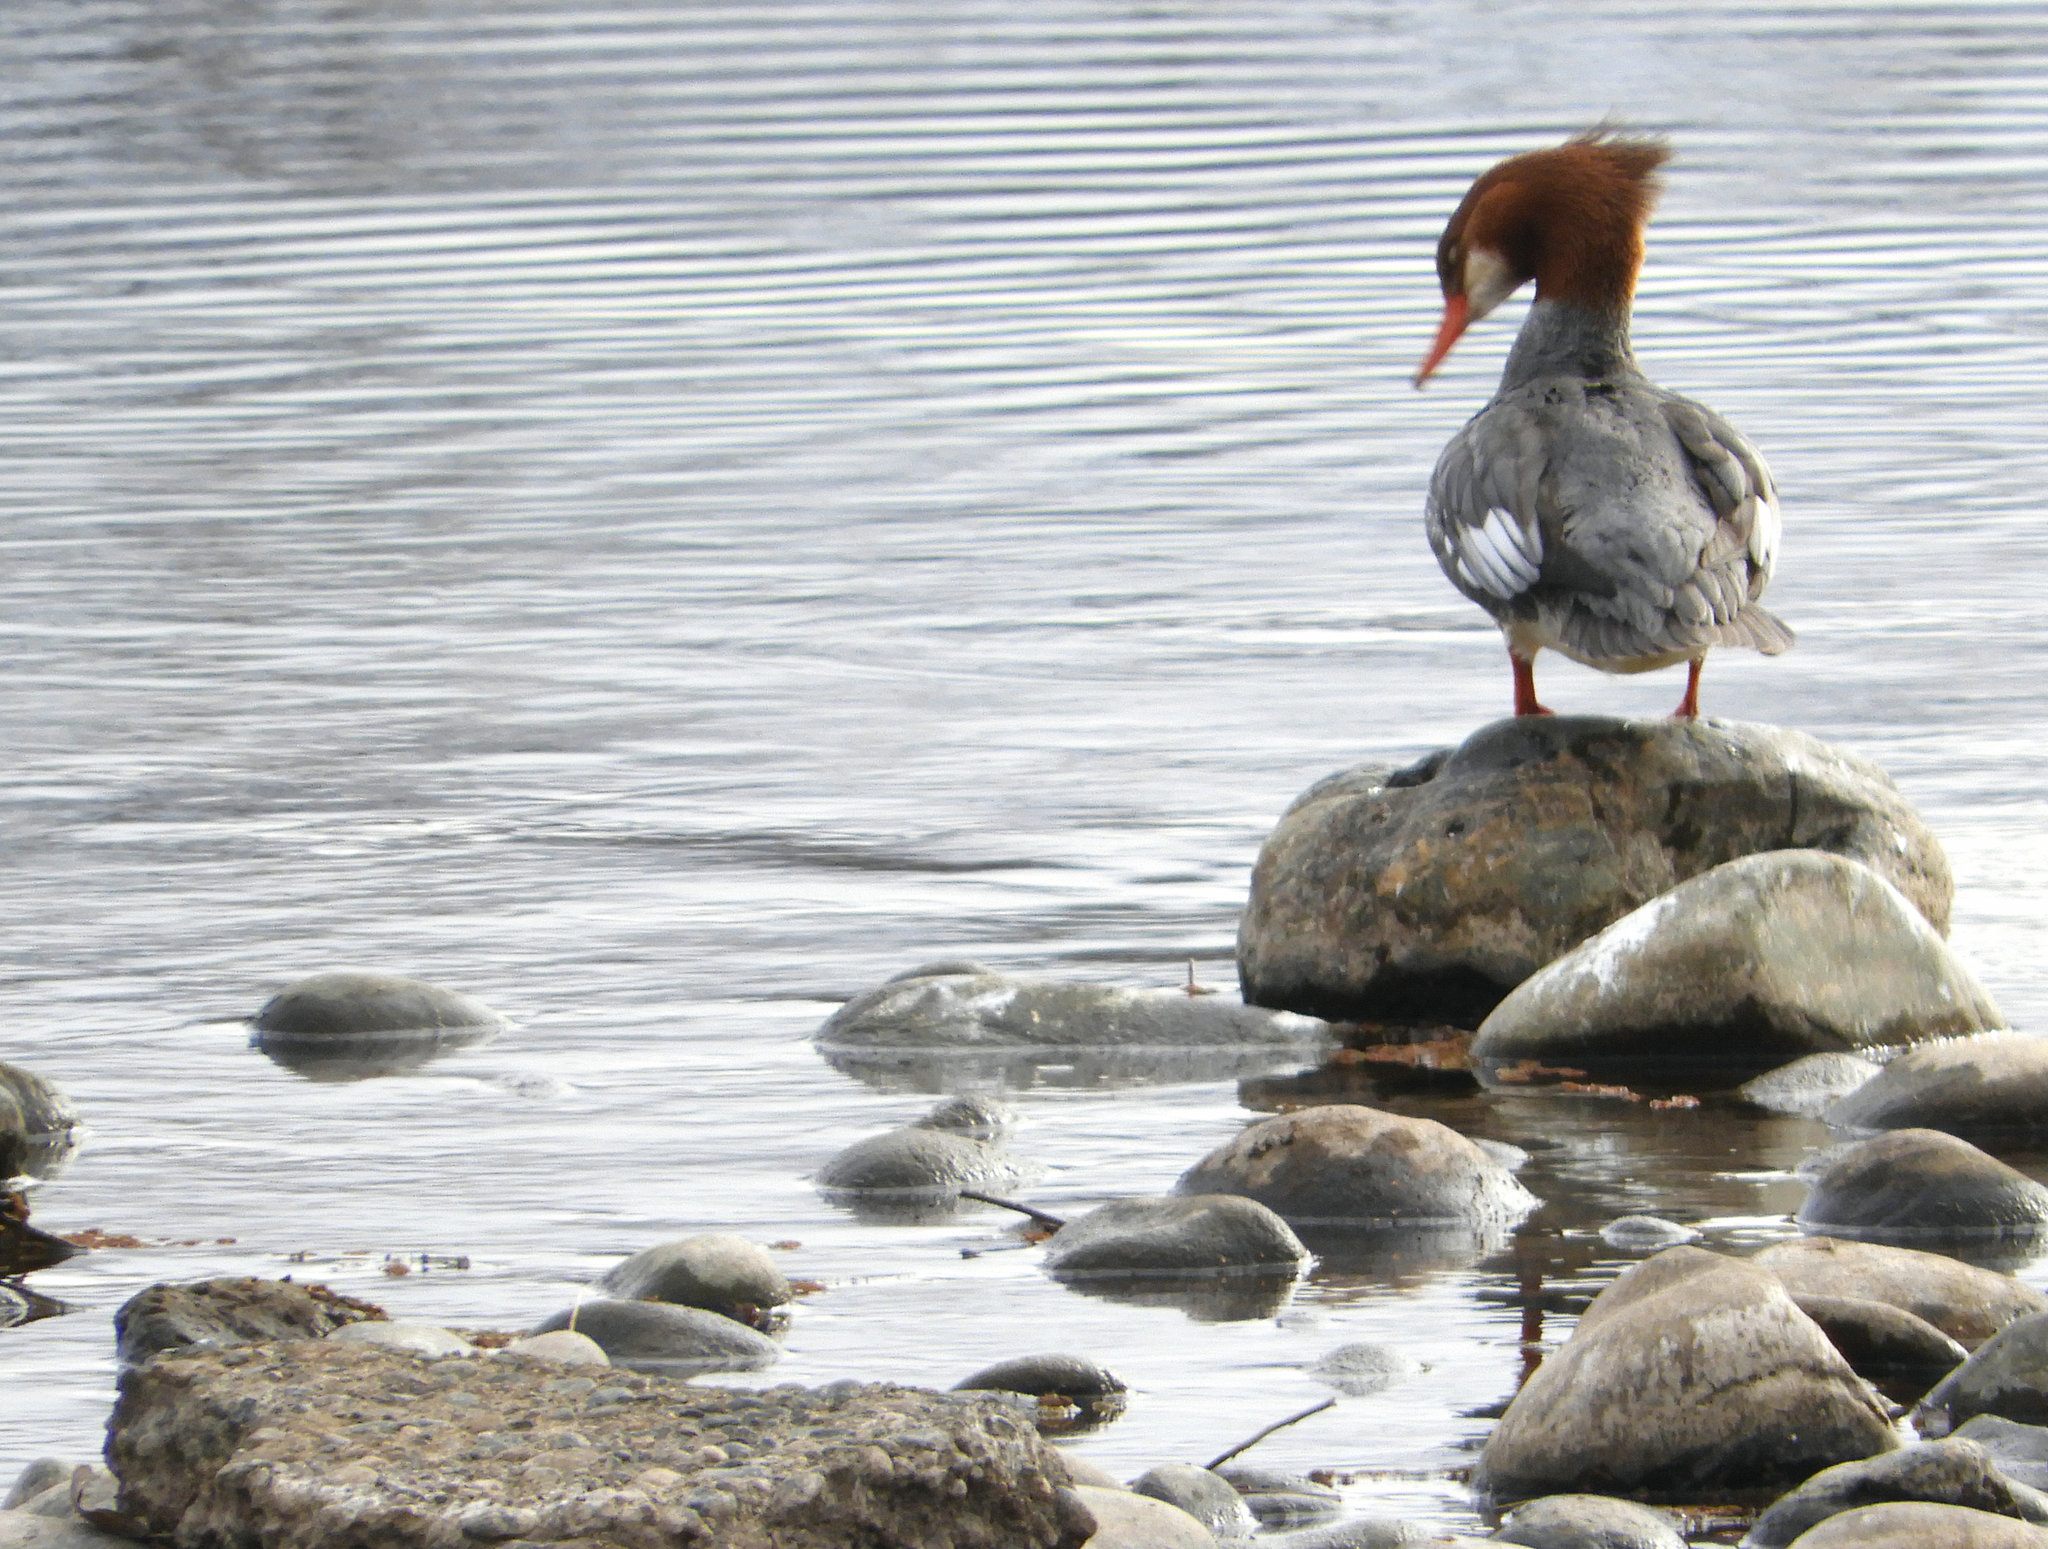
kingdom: Animalia
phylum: Chordata
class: Aves
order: Anseriformes
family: Anatidae
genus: Mergus
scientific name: Mergus merganser
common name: Common merganser
